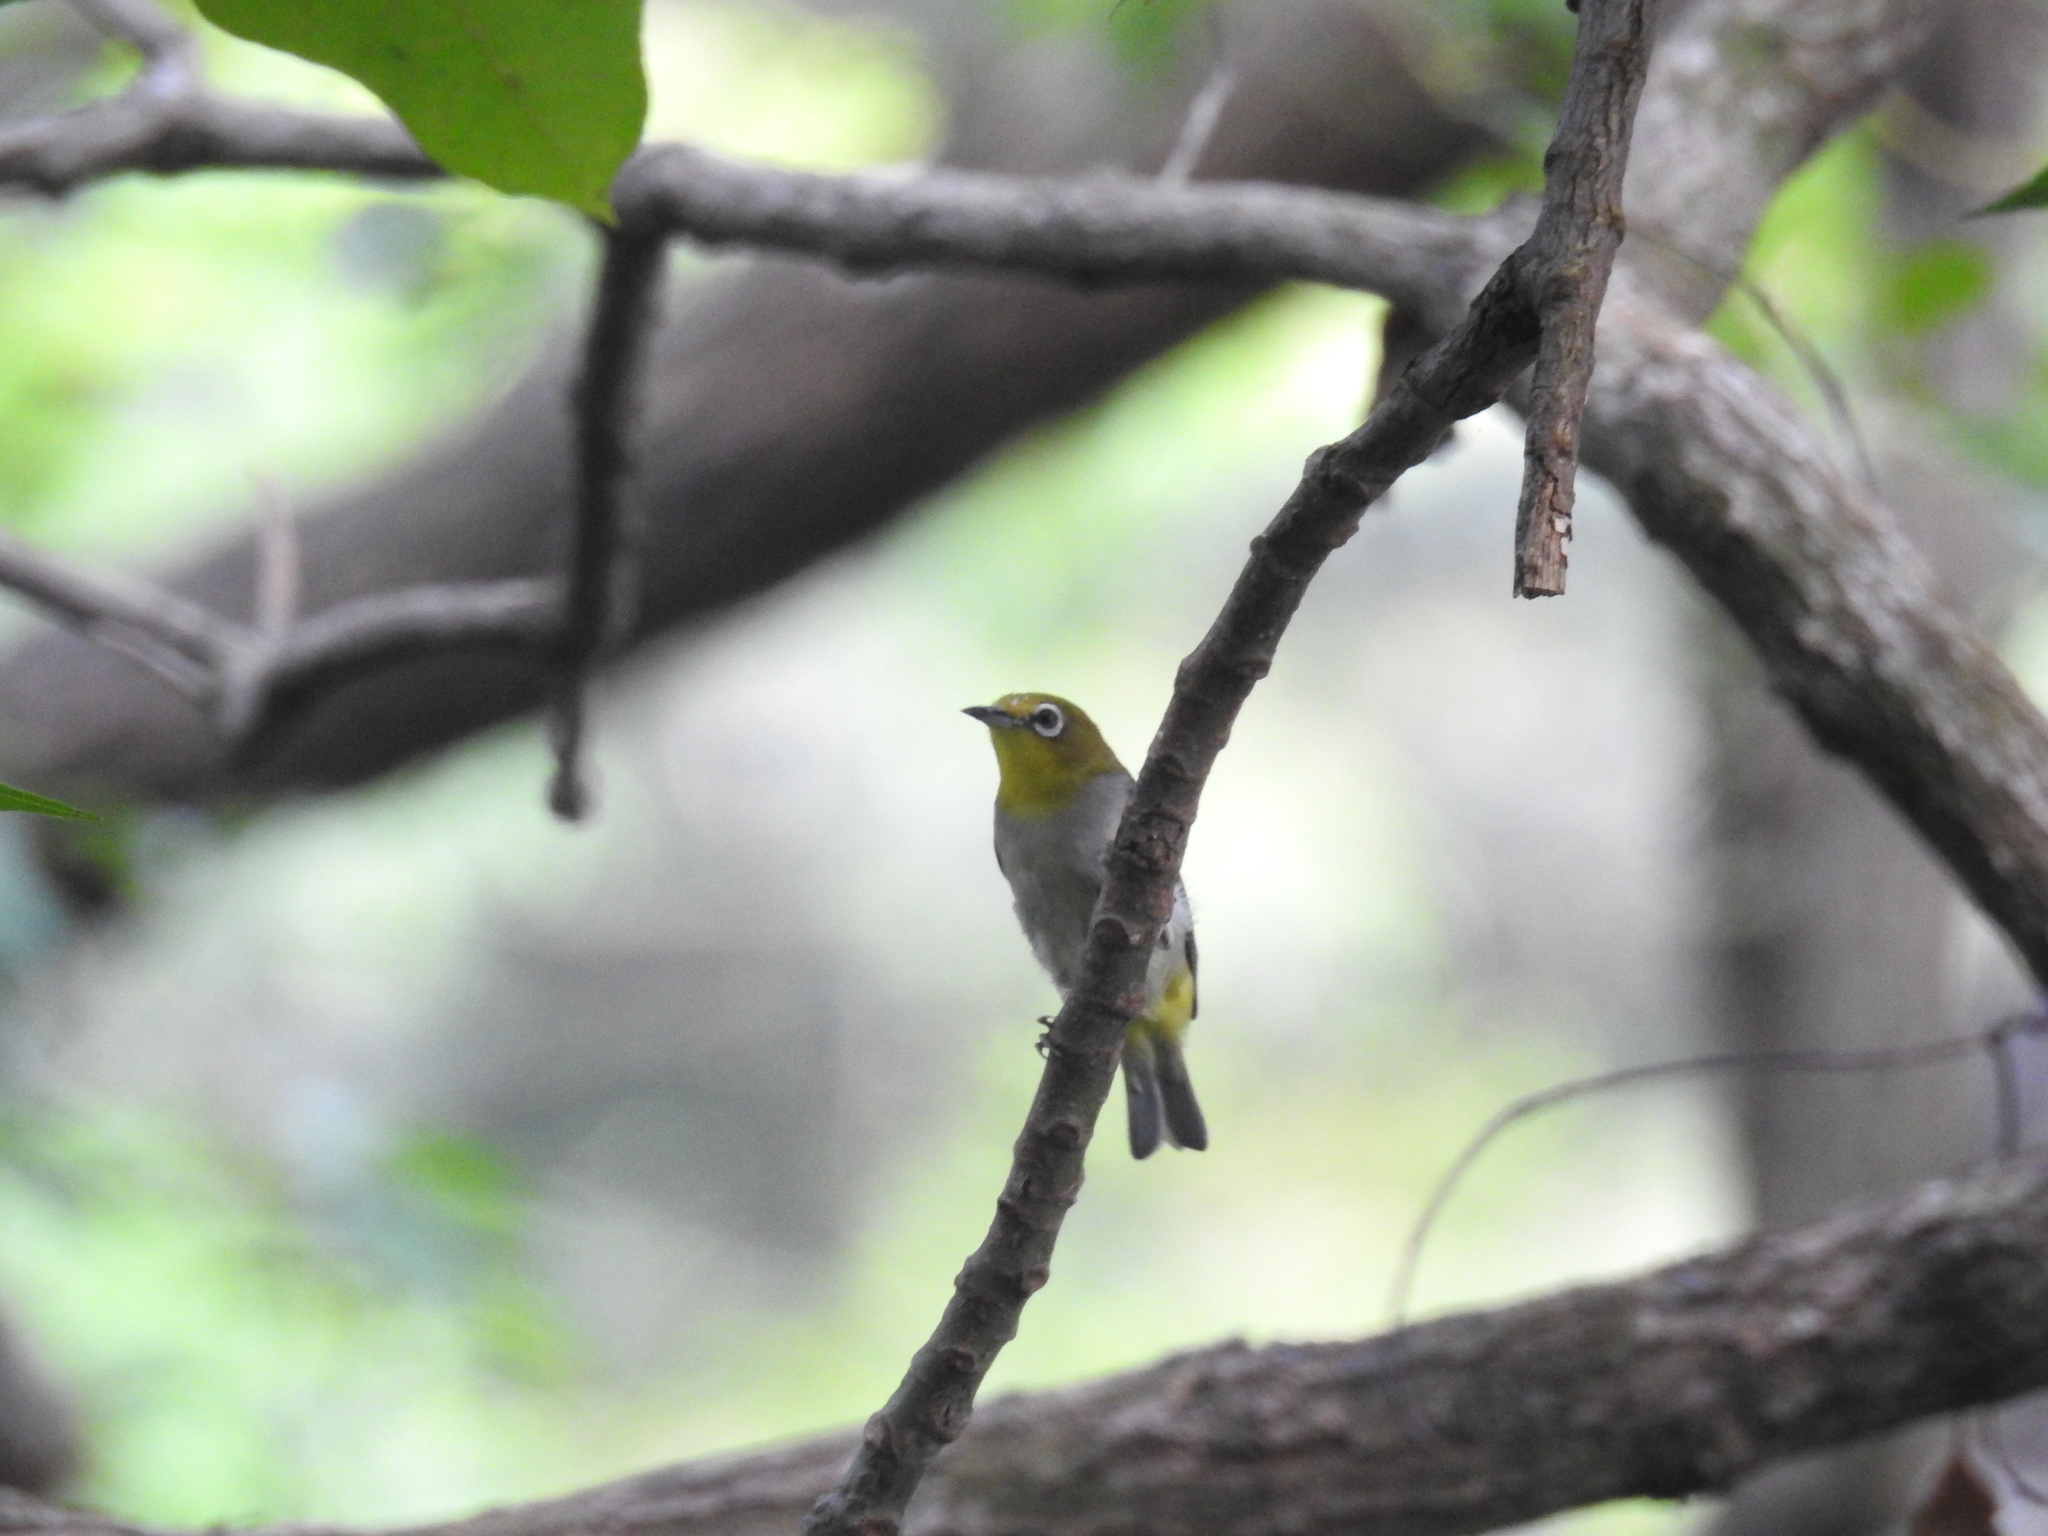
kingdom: Animalia
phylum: Chordata
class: Aves
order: Passeriformes
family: Zosteropidae
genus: Zosterops
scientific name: Zosterops simplex
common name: Swinhoe's white-eye
